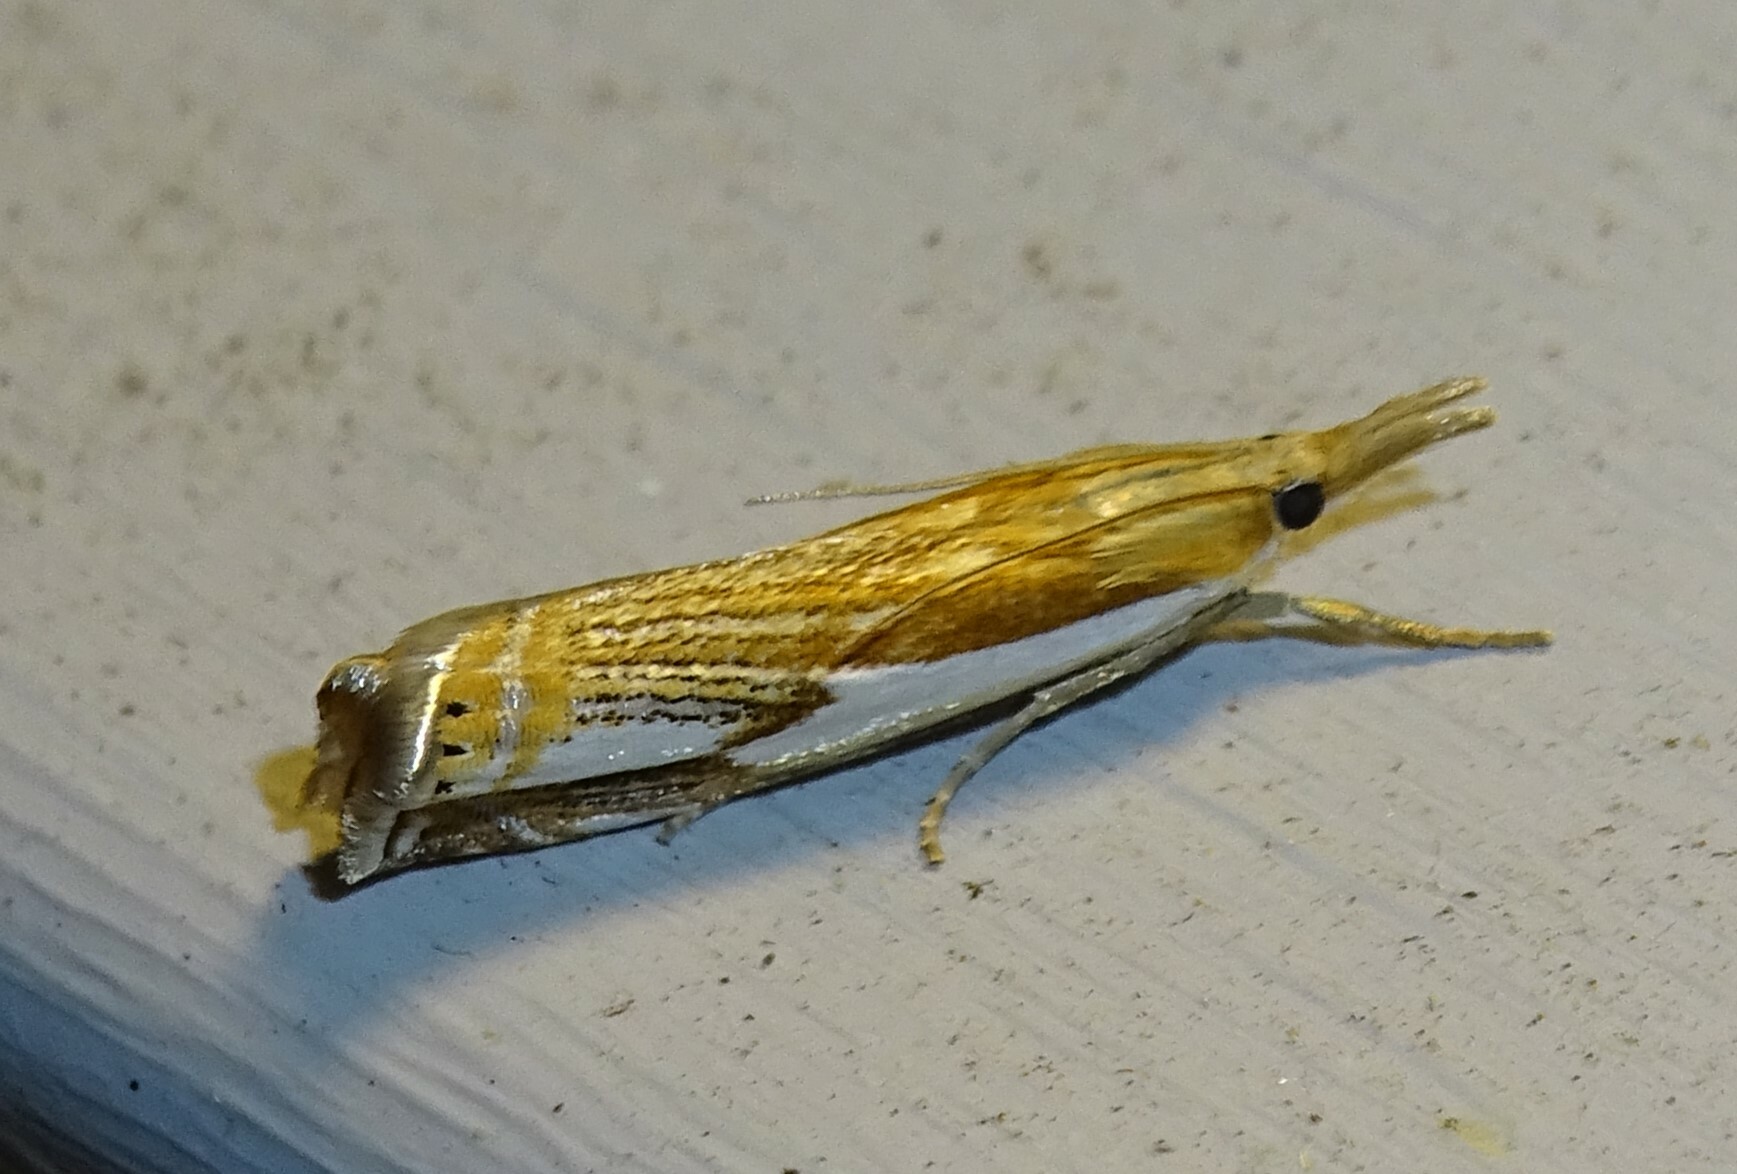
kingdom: Animalia
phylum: Arthropoda
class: Insecta
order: Lepidoptera
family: Crambidae
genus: Crambus
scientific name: Crambus agitatellus
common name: Double-banded grass-veneer
